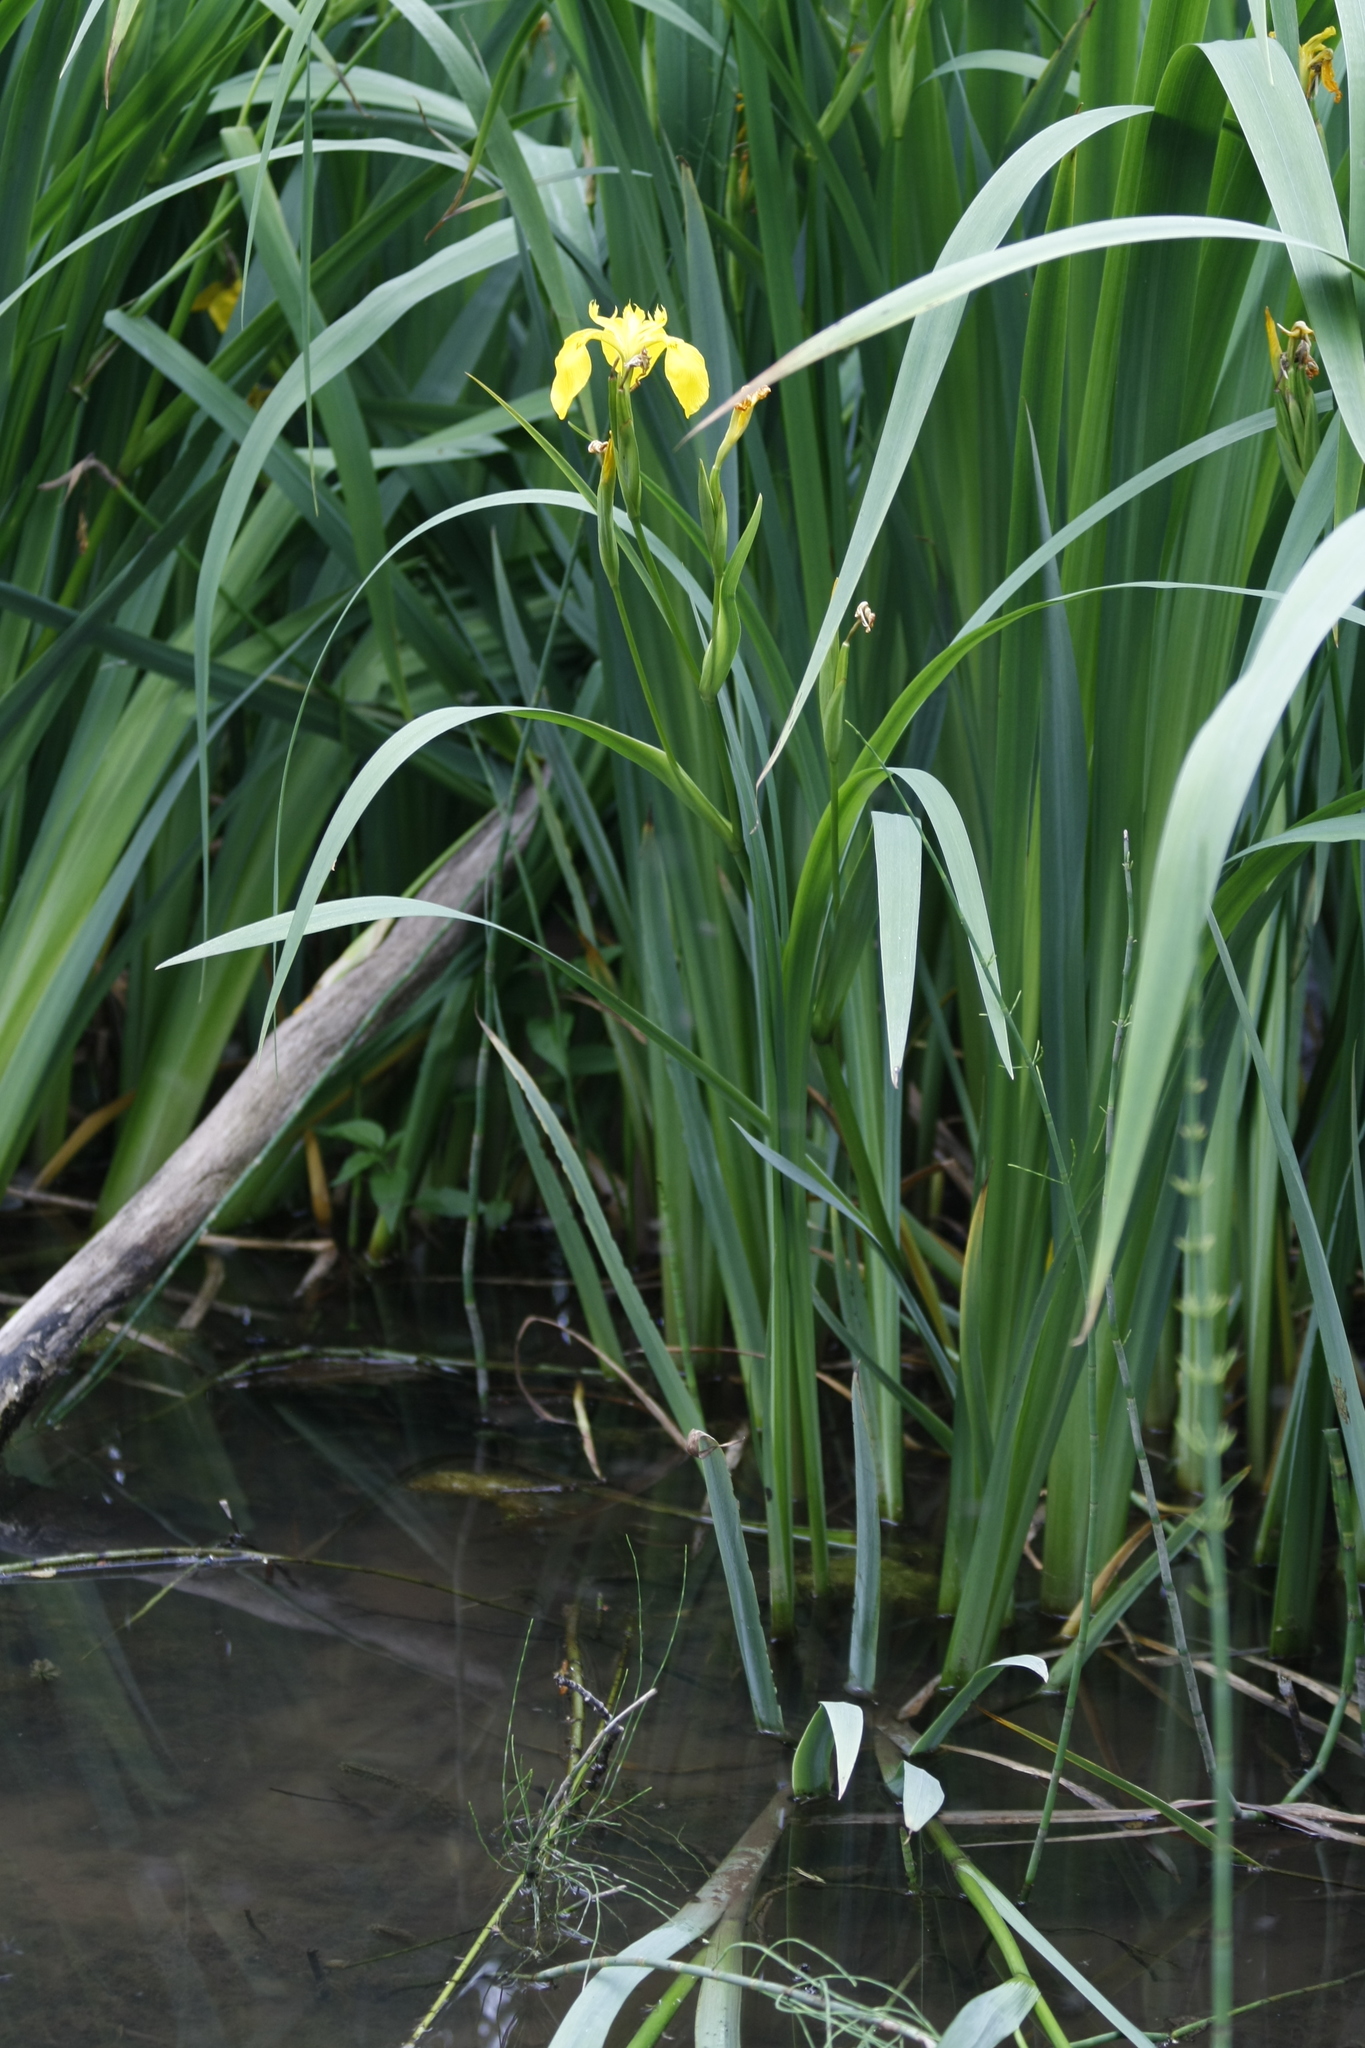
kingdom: Plantae
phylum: Tracheophyta
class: Liliopsida
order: Asparagales
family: Iridaceae
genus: Iris
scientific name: Iris pseudacorus
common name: Yellow flag
